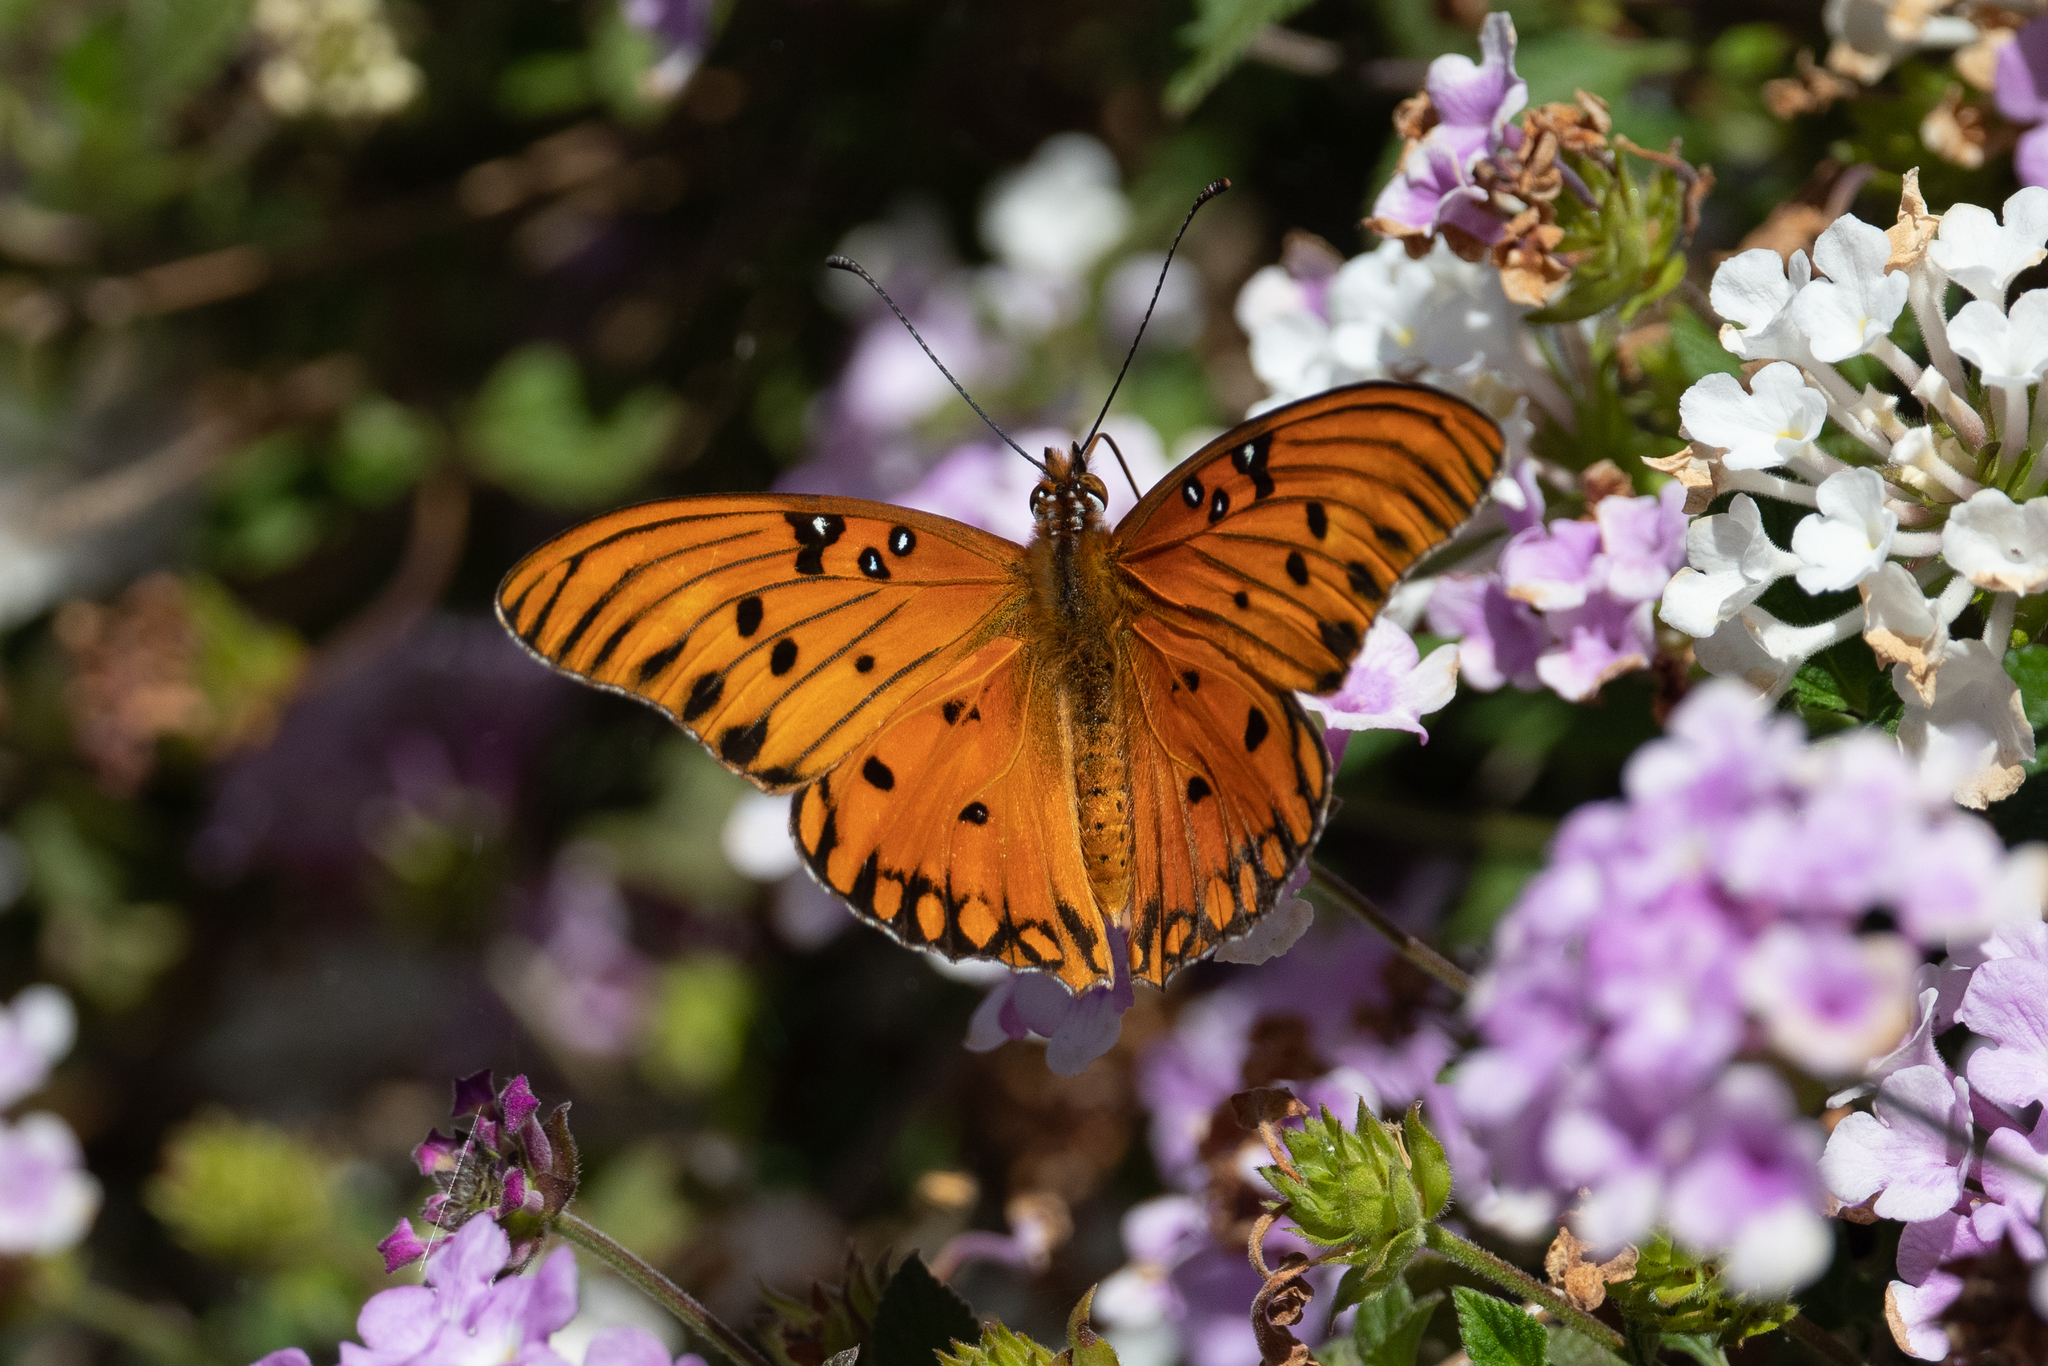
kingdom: Animalia
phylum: Arthropoda
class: Insecta
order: Lepidoptera
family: Nymphalidae
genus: Dione
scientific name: Dione vanillae
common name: Gulf fritillary
